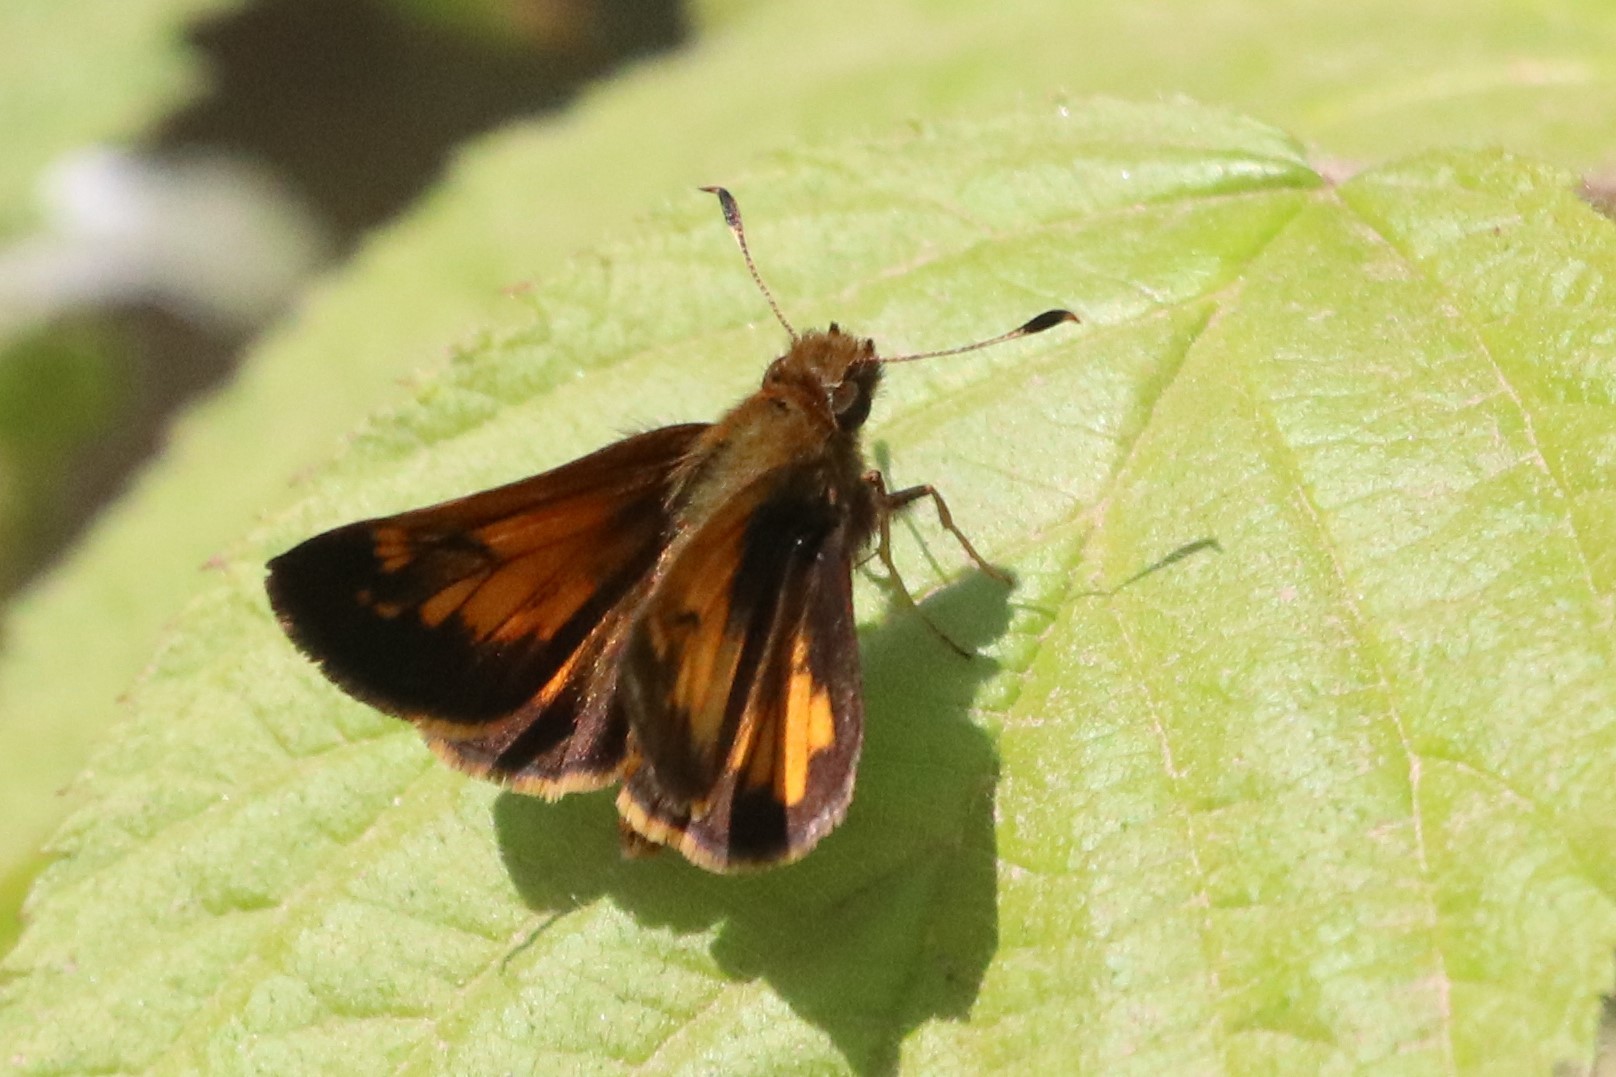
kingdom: Animalia
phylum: Arthropoda
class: Insecta
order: Lepidoptera
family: Hesperiidae
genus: Lon
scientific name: Lon hobomok
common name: Hobomok skipper
